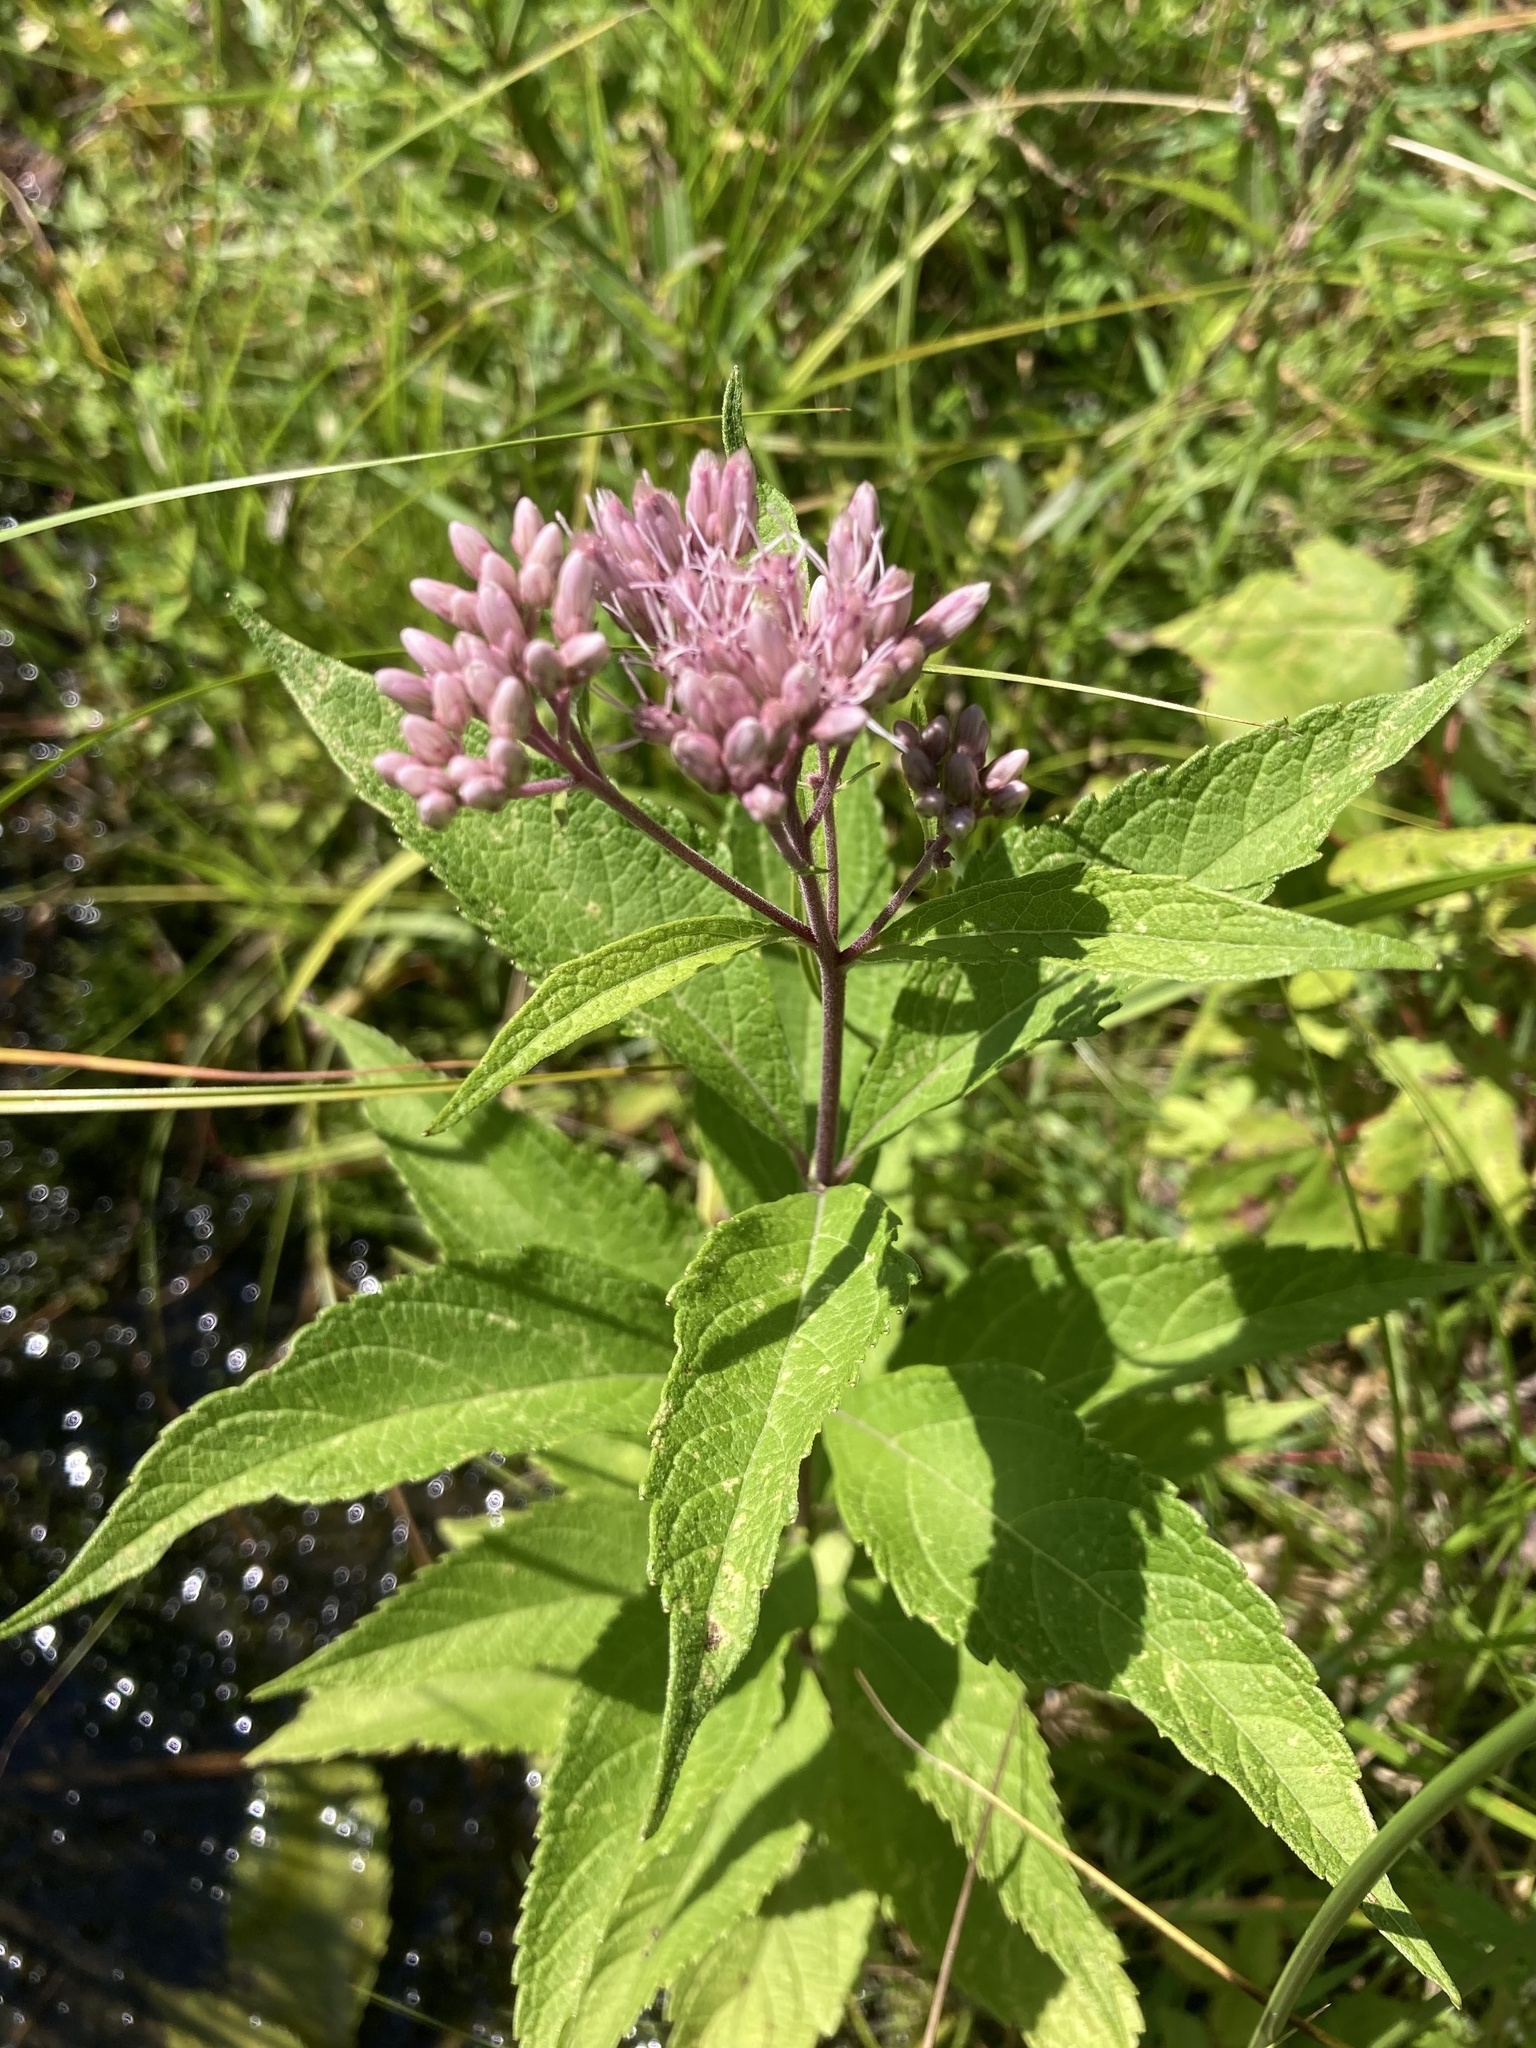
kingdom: Plantae
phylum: Tracheophyta
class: Magnoliopsida
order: Asterales
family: Asteraceae
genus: Eutrochium
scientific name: Eutrochium maculatum
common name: Spotted joe pye weed
